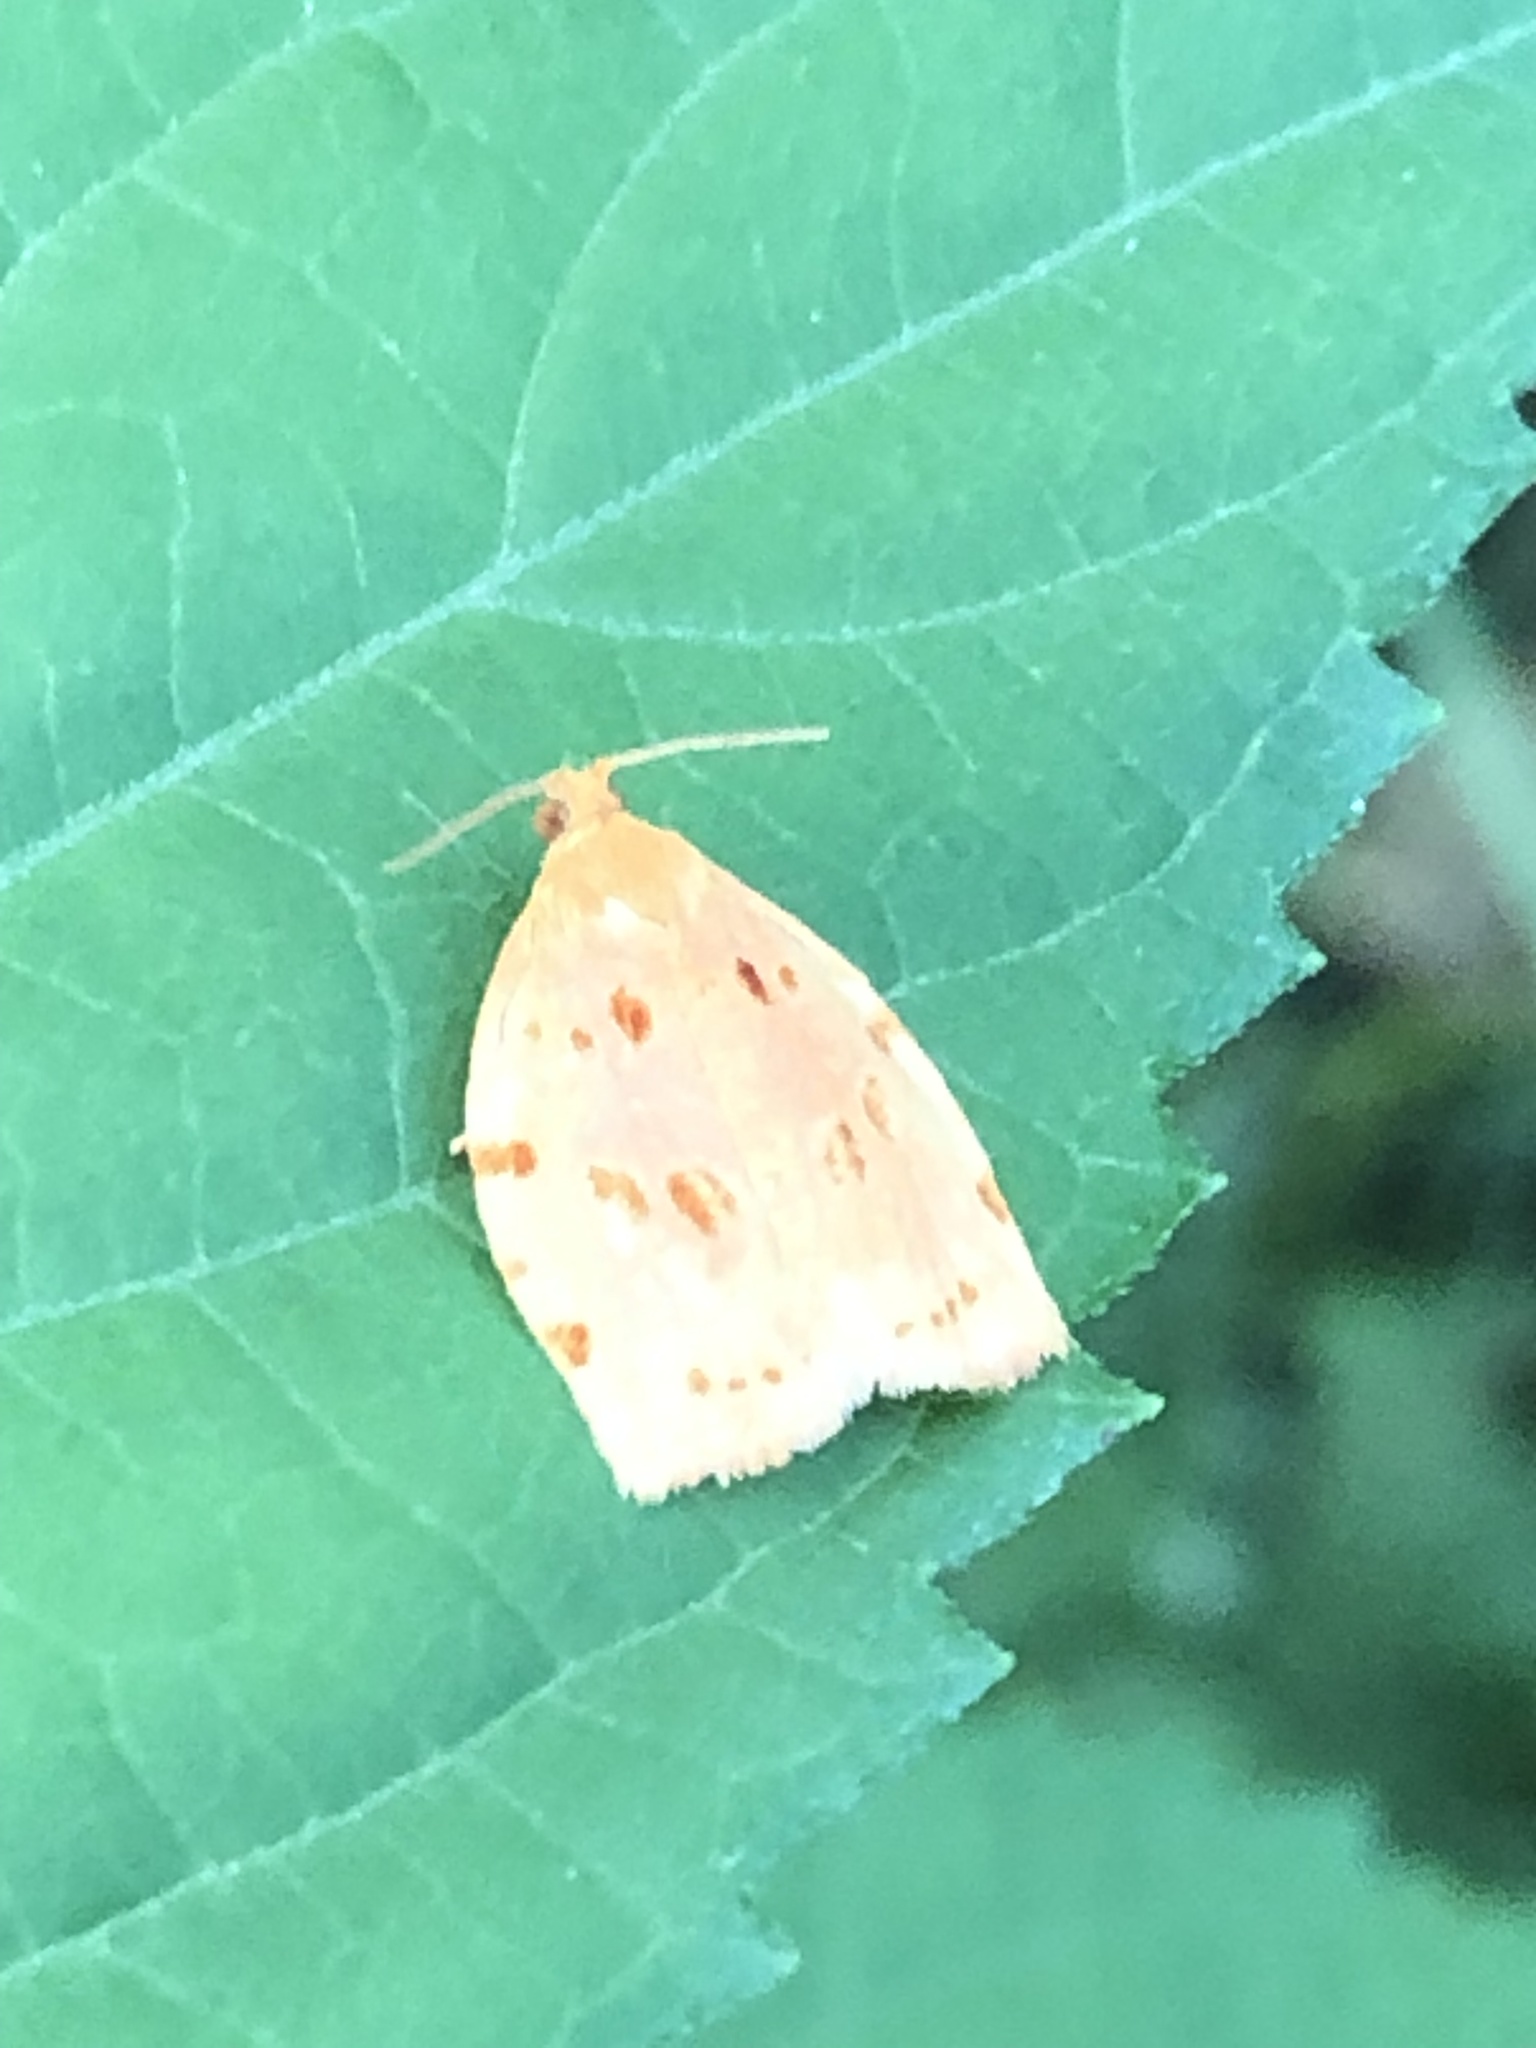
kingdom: Animalia
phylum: Arthropoda
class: Insecta
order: Lepidoptera
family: Tortricidae
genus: Archips
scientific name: Archips rileyana
